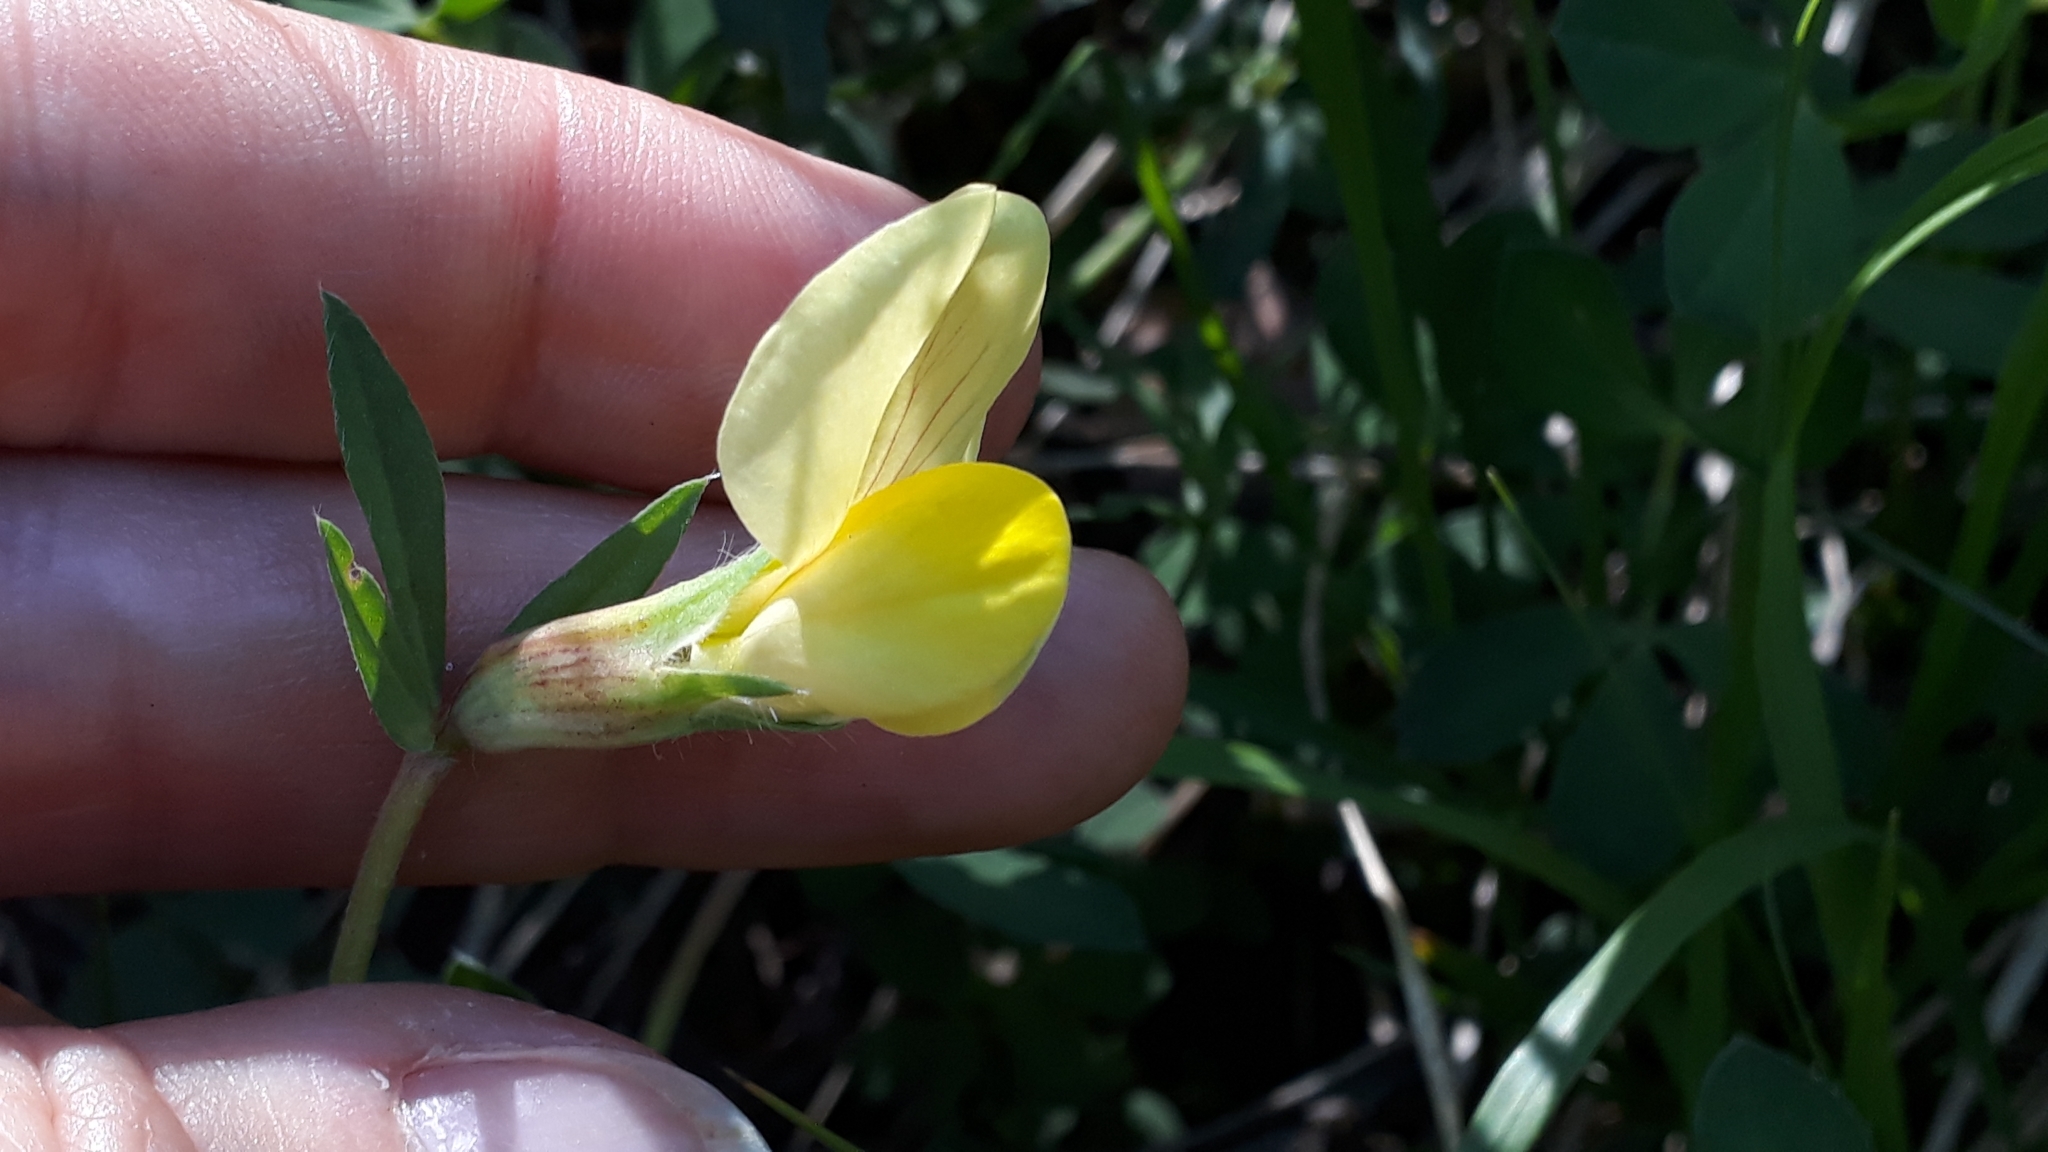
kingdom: Plantae
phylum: Tracheophyta
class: Magnoliopsida
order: Fabales
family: Fabaceae
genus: Lotus
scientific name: Lotus maritimus
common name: Dragon's-teeth
